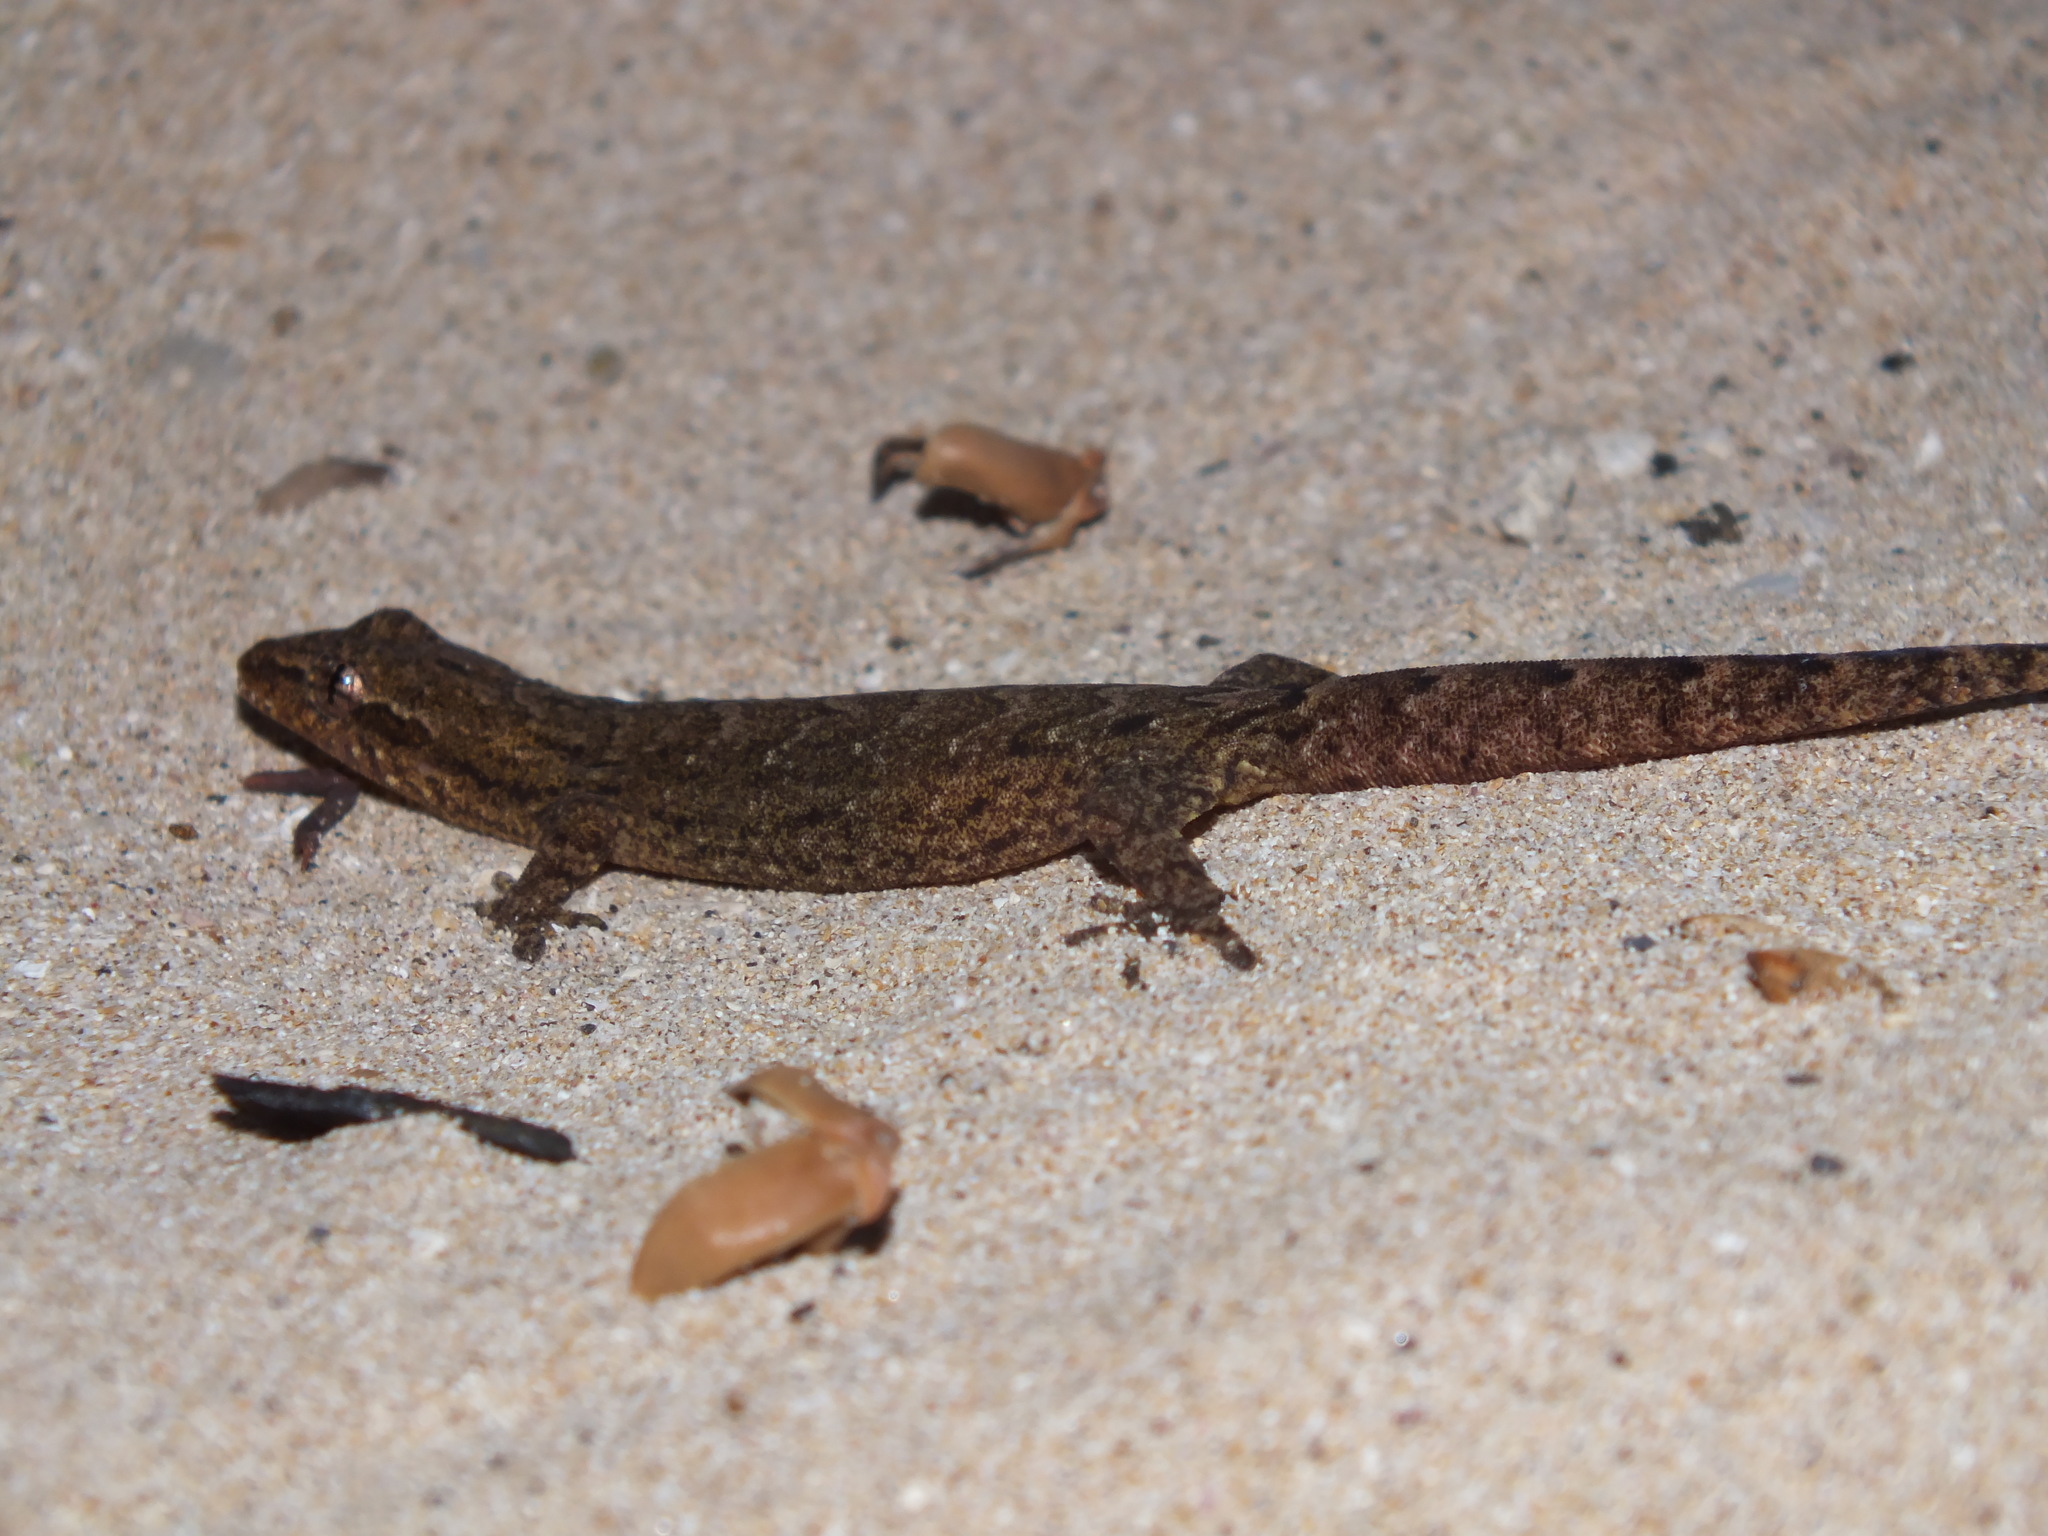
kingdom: Animalia
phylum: Chordata
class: Squamata
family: Gekkonidae
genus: Lepidodactylus
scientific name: Lepidodactylus lugubris
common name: Mourning gecko
